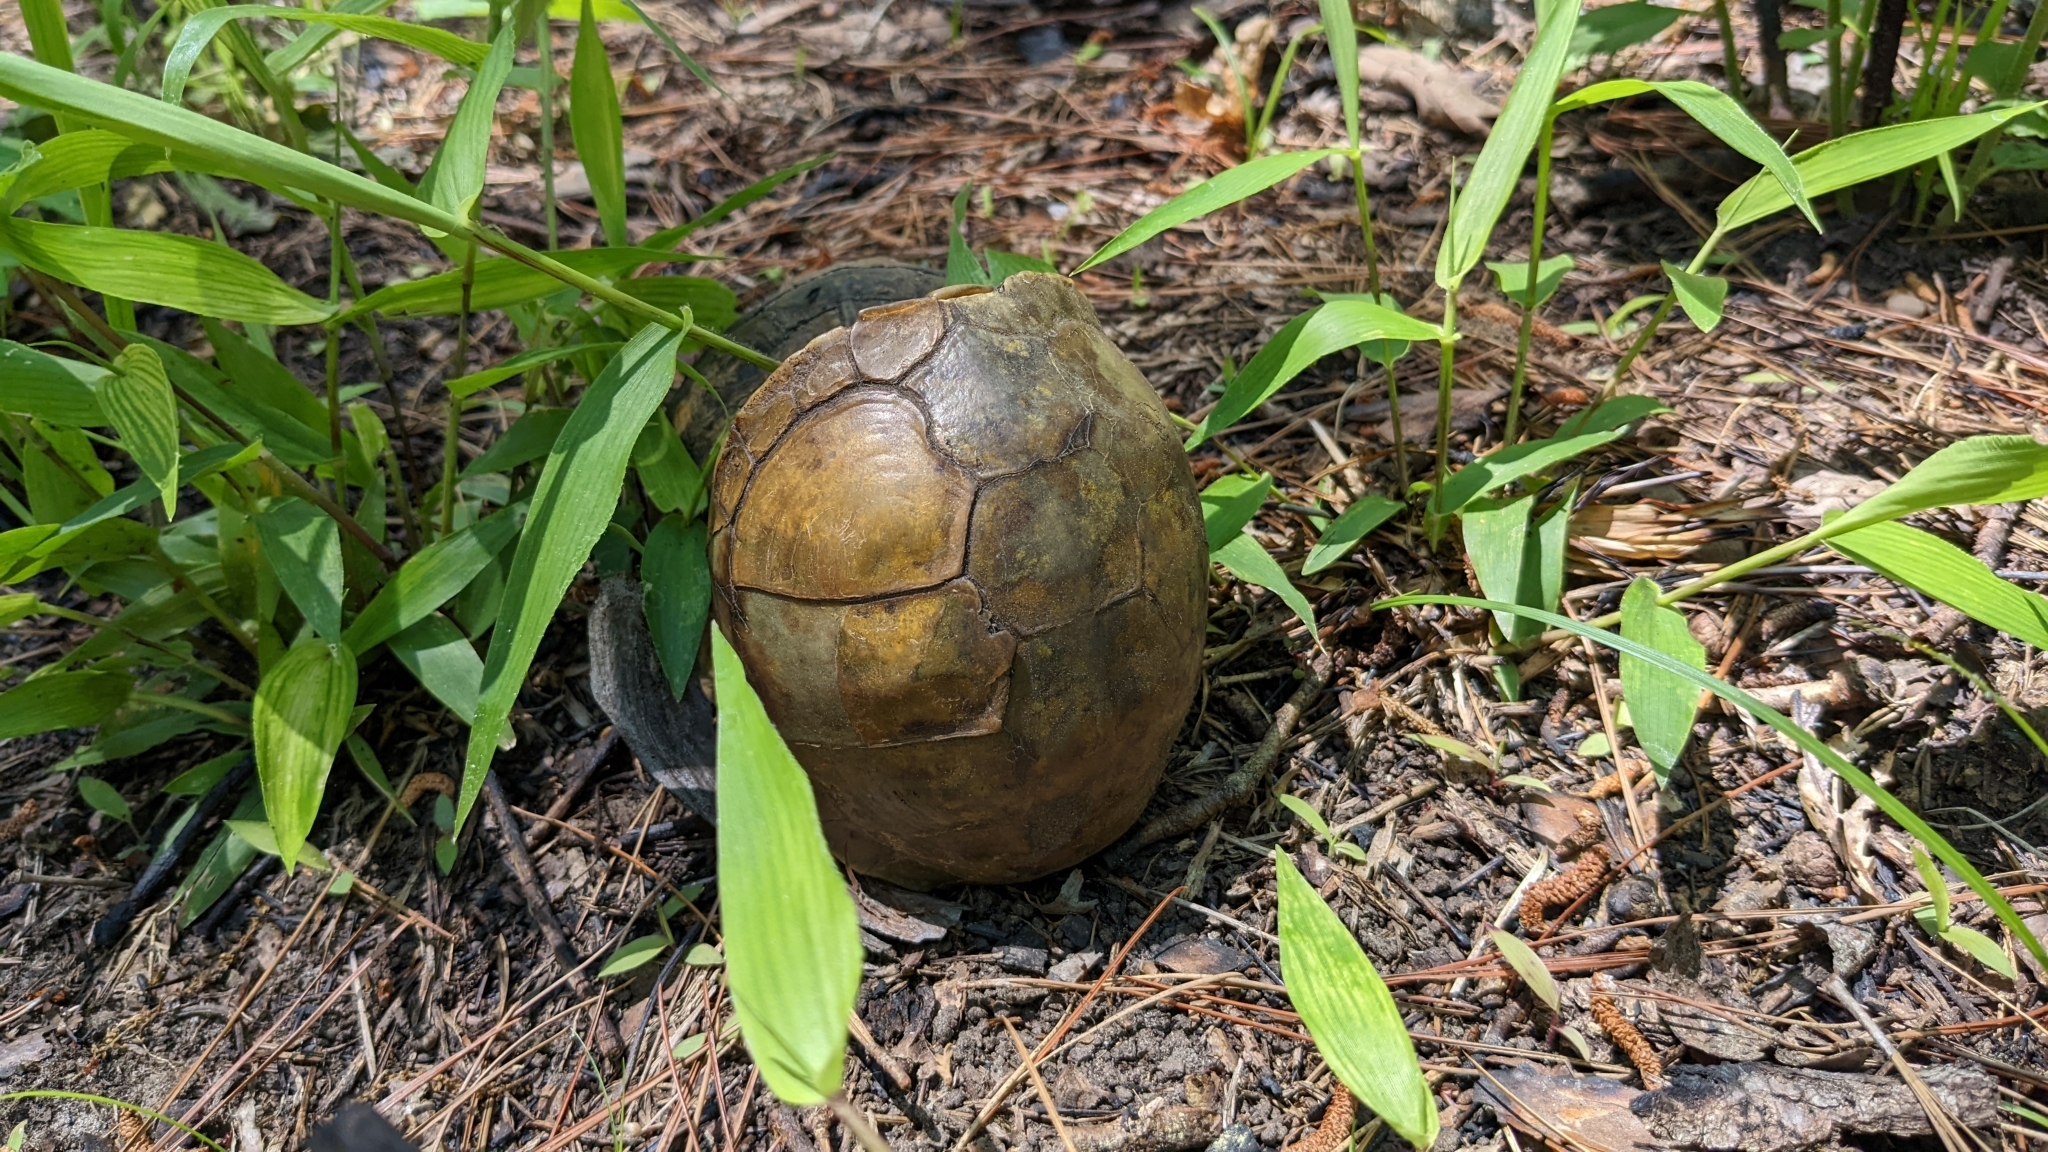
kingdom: Animalia
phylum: Chordata
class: Testudines
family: Emydidae
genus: Terrapene
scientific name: Terrapene carolina
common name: Common box turtle
